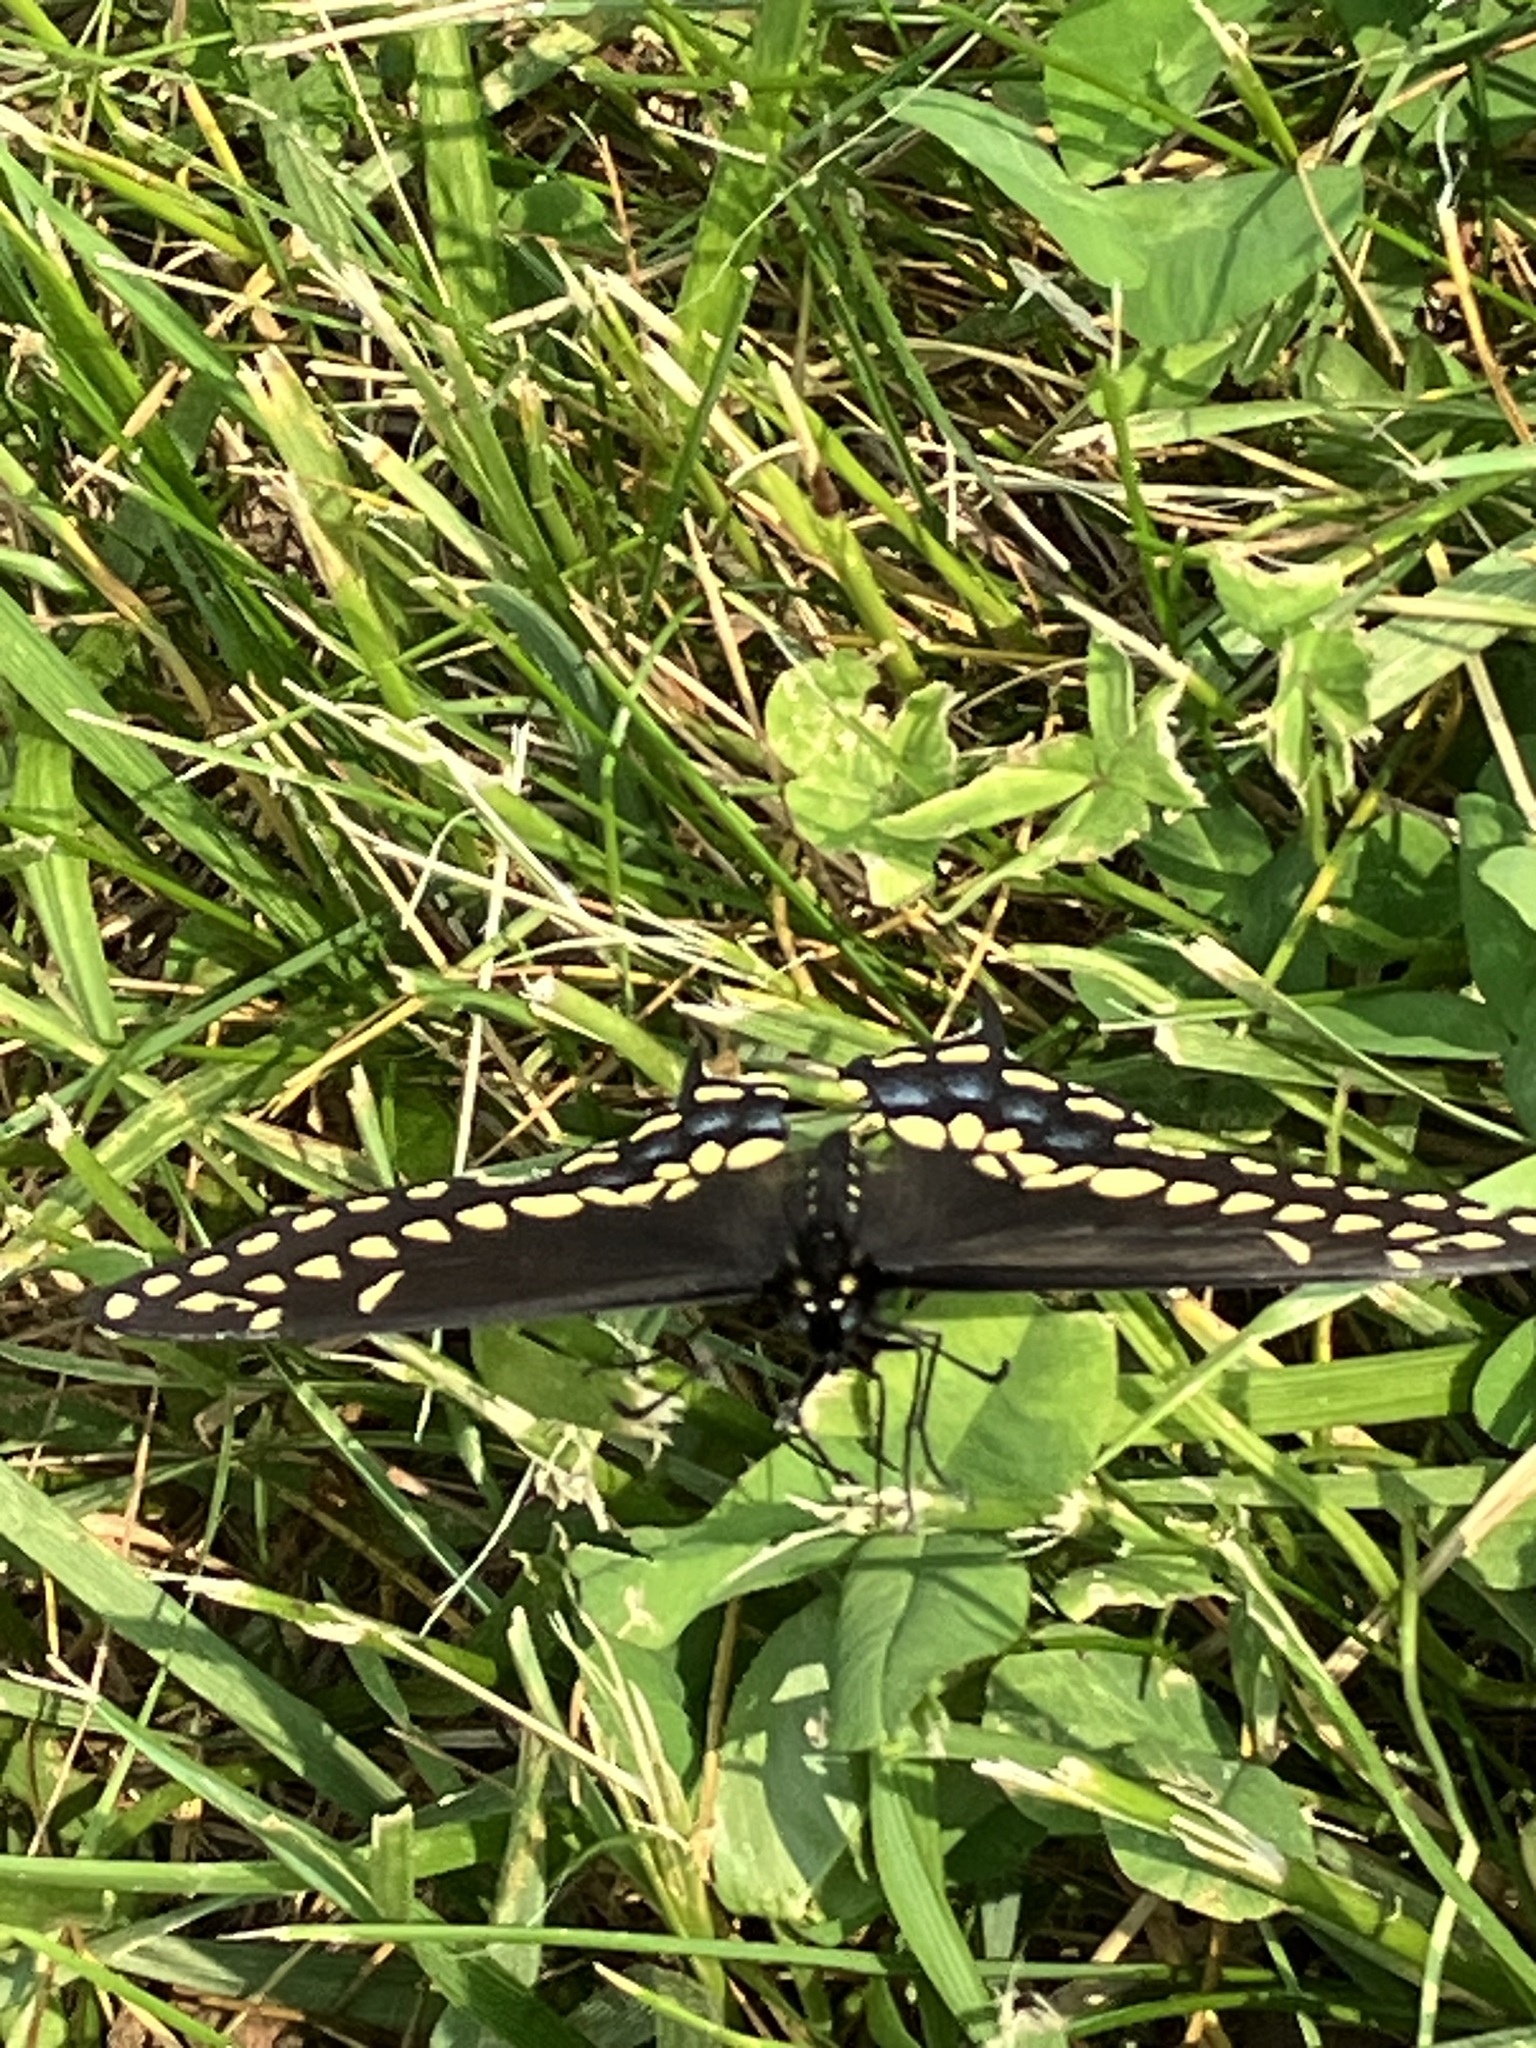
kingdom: Animalia
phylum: Arthropoda
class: Insecta
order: Lepidoptera
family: Papilionidae
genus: Papilio
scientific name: Papilio polyxenes
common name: Black swallowtail
